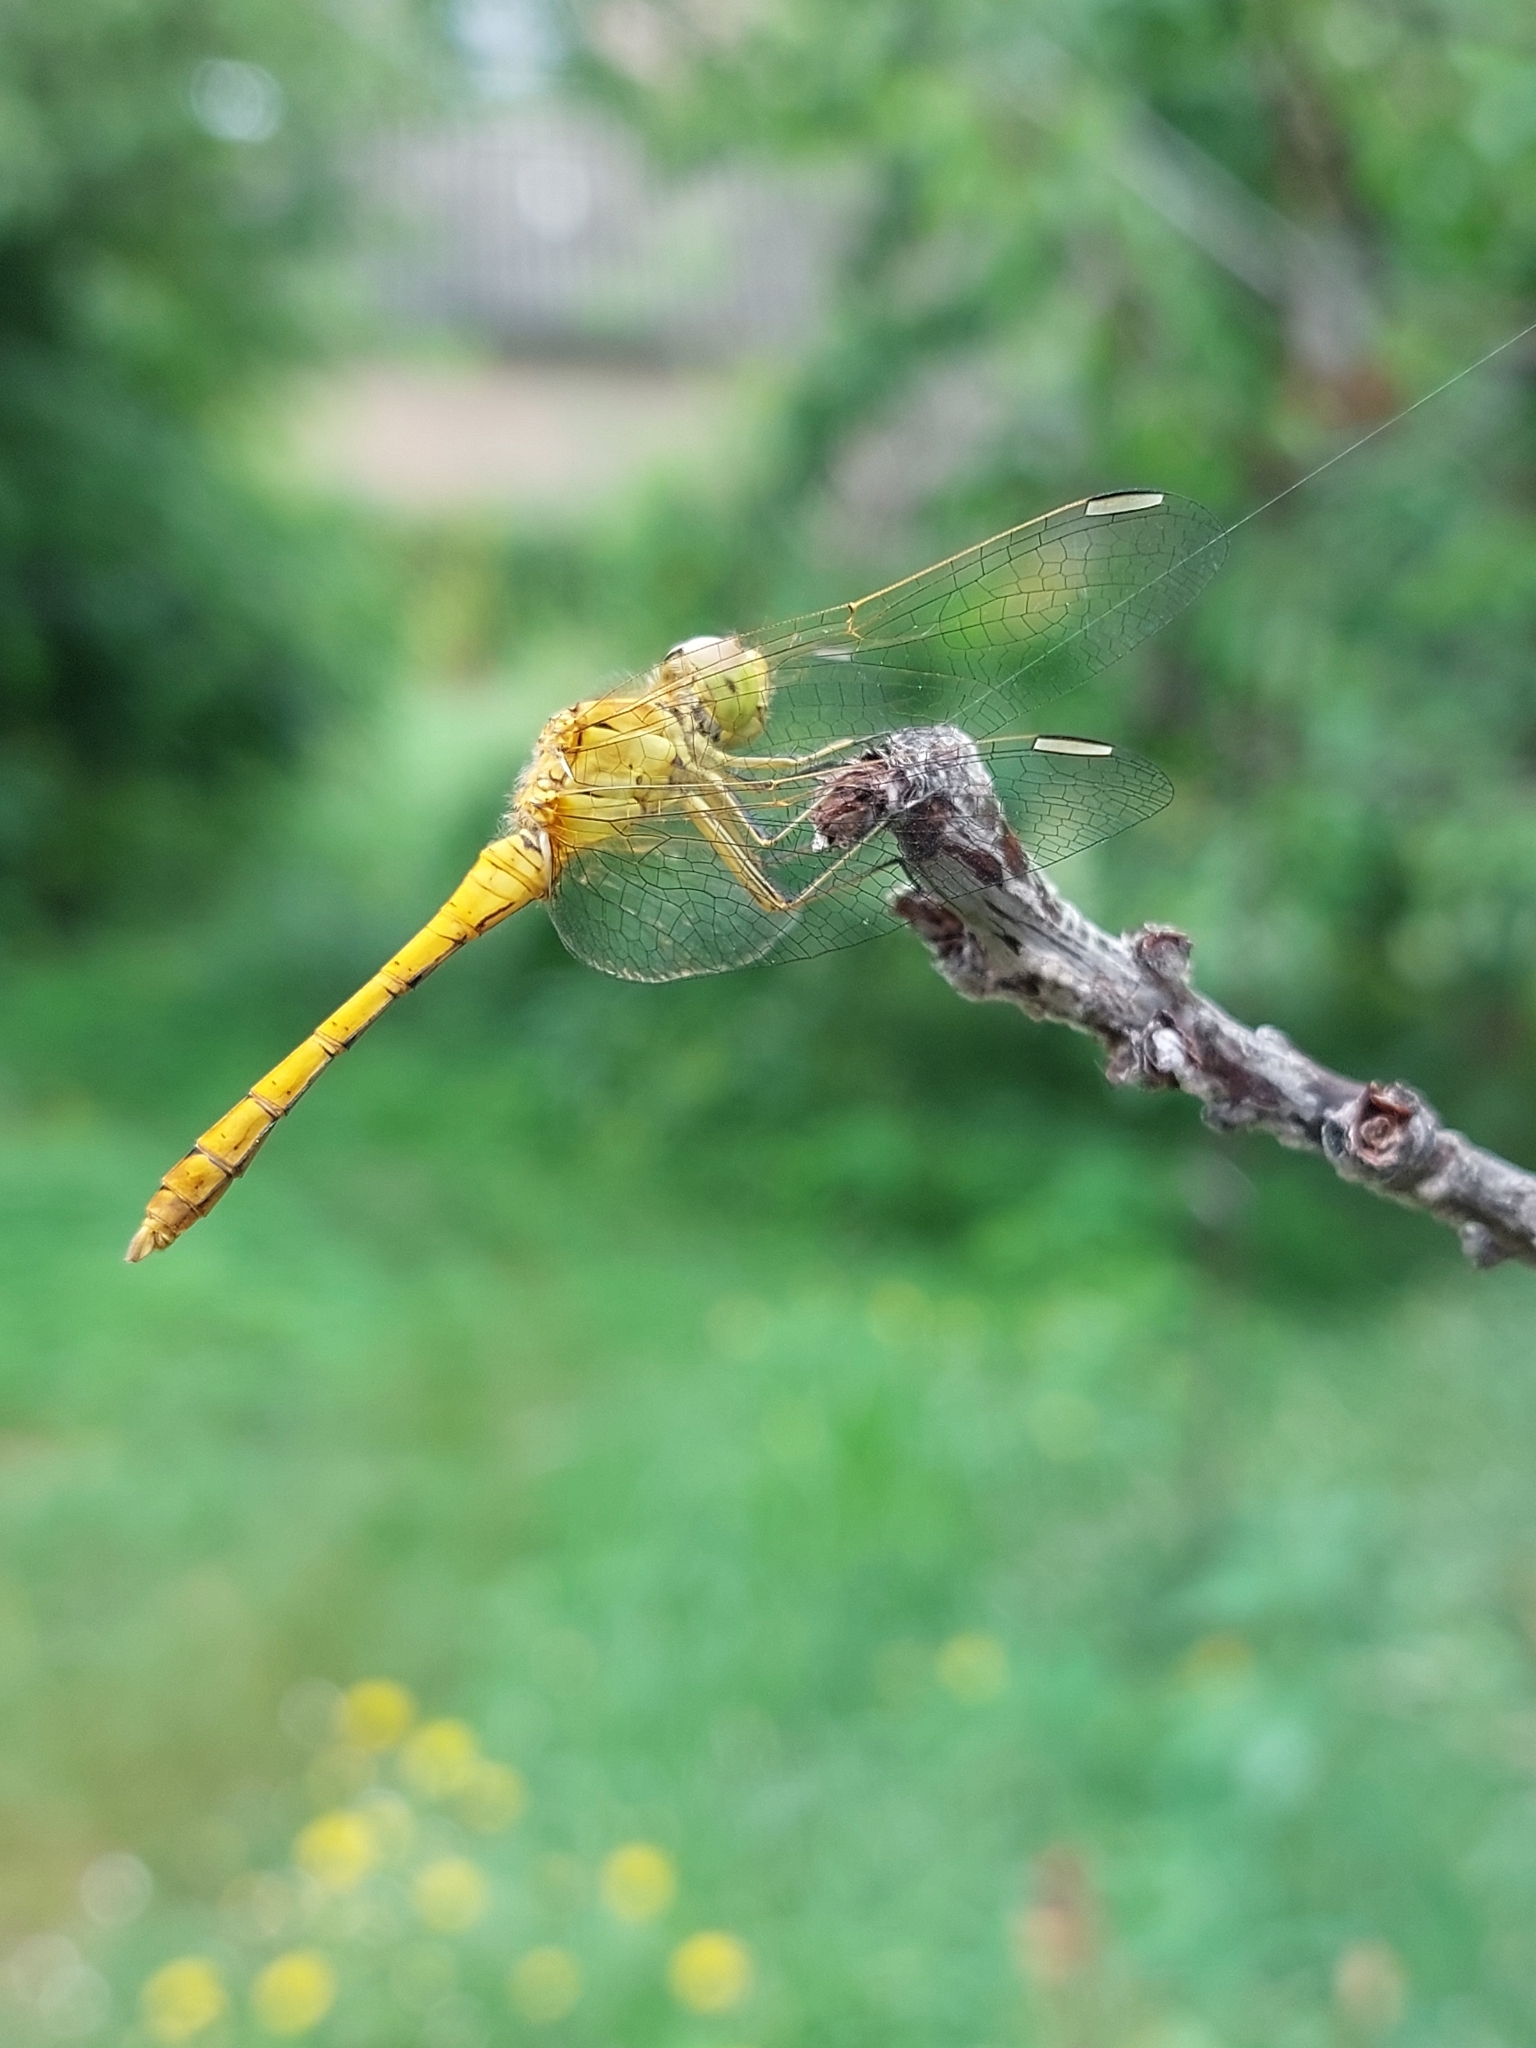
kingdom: Animalia
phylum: Arthropoda
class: Insecta
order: Odonata
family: Libellulidae
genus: Sympetrum
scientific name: Sympetrum meridionale
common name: Southern darter
